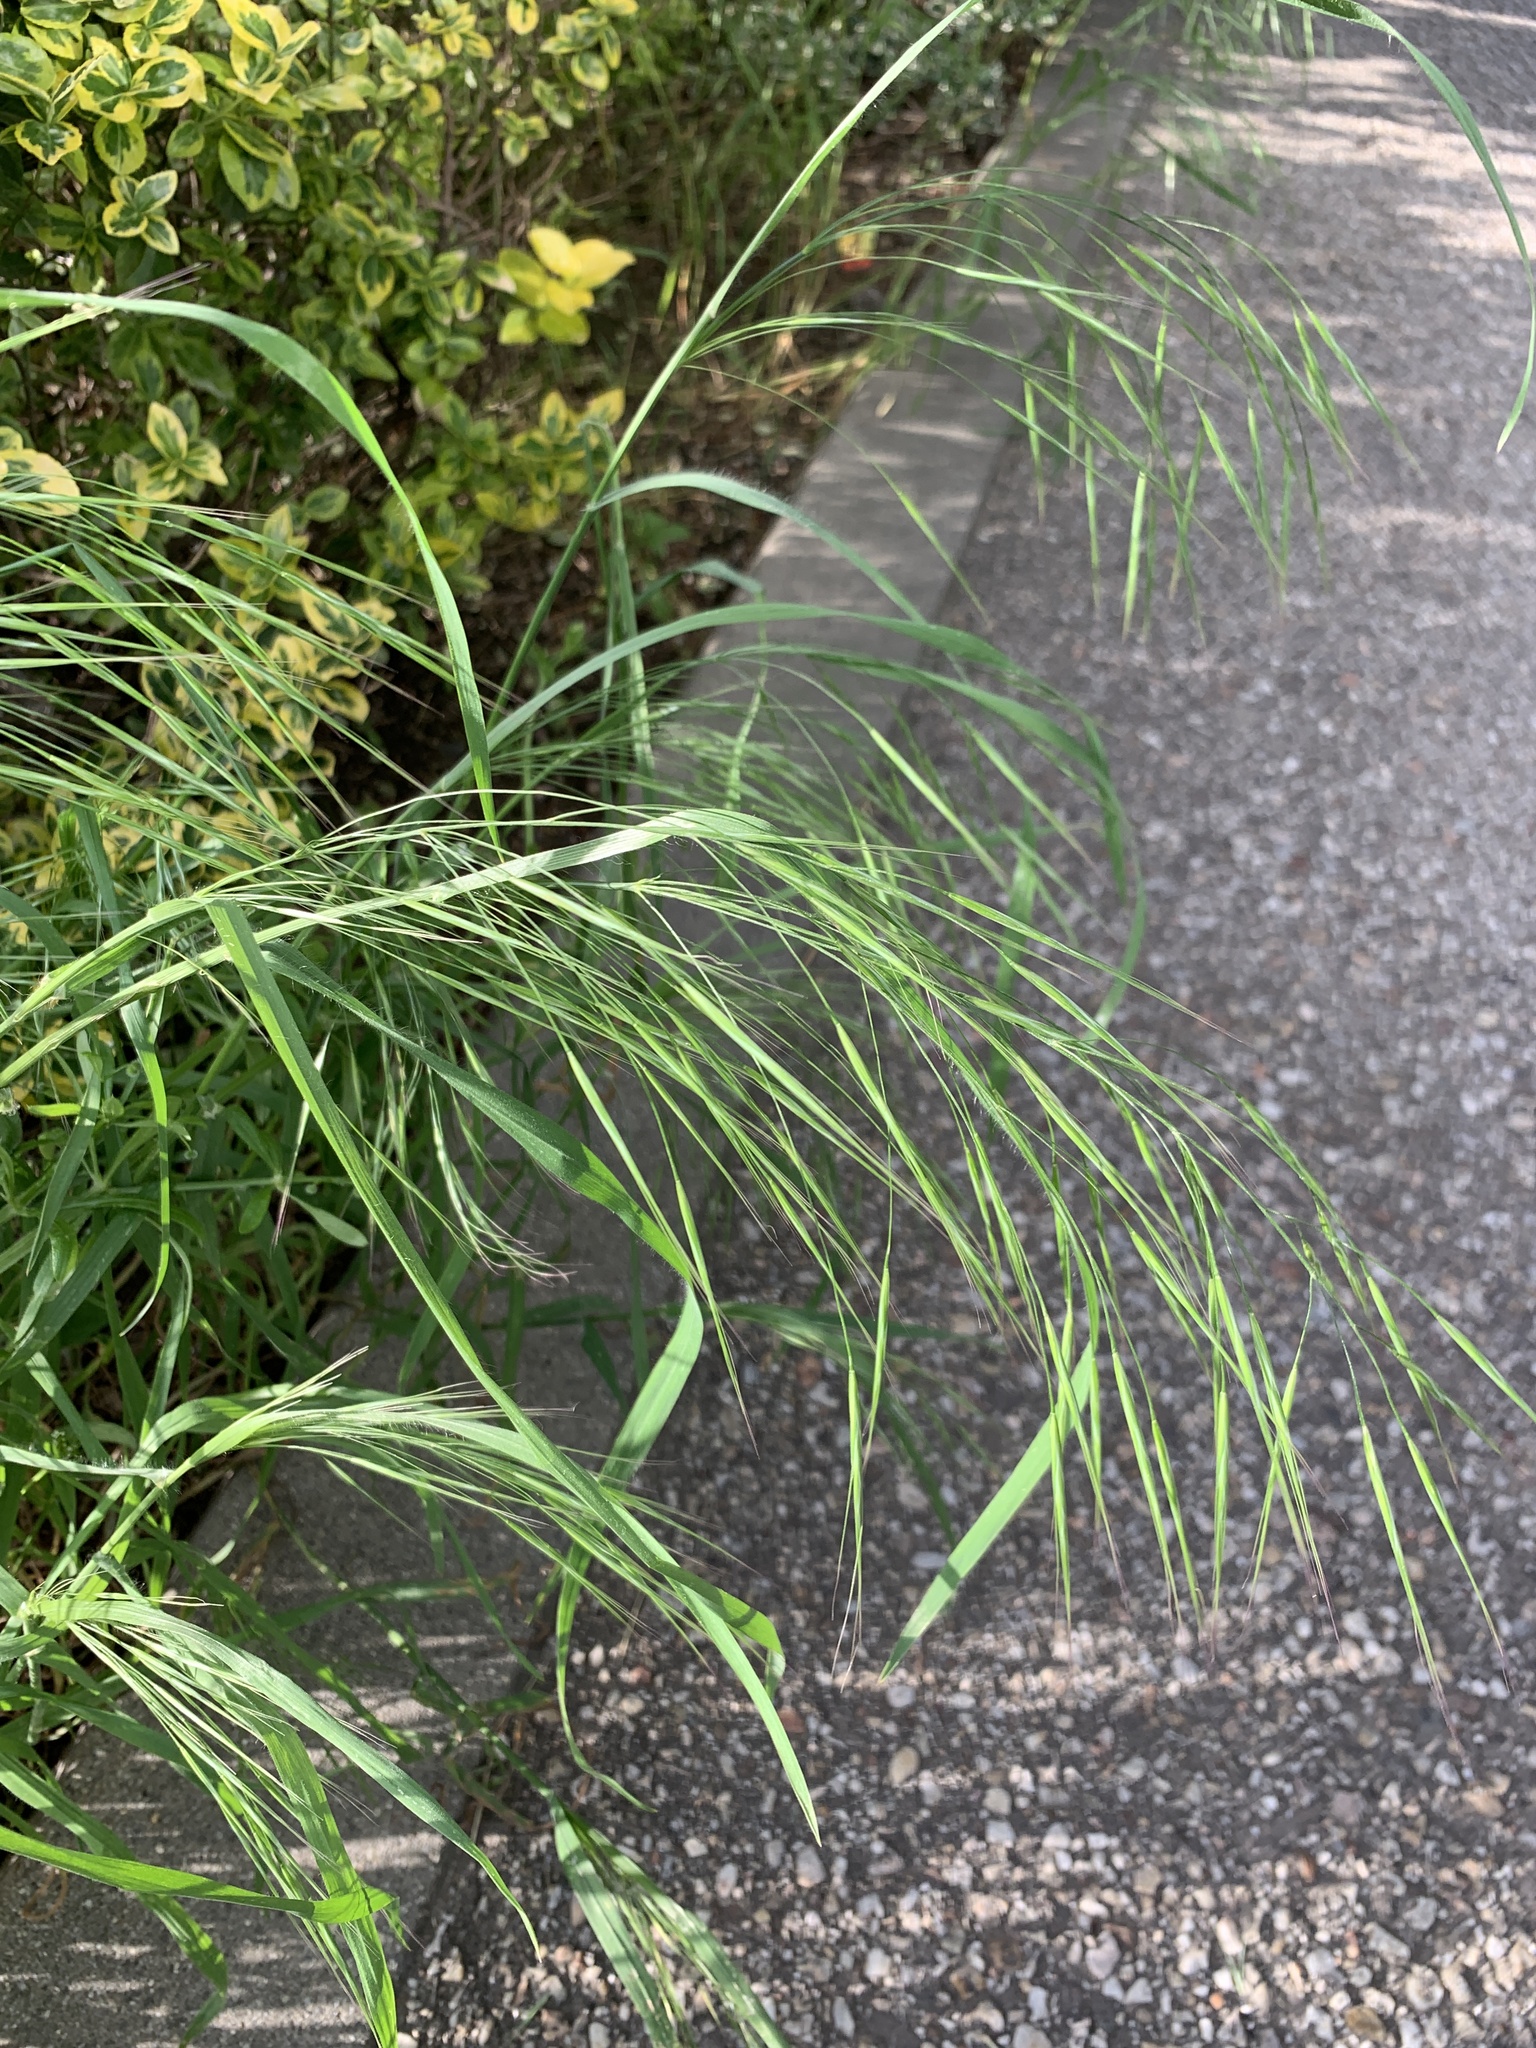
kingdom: Plantae
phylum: Tracheophyta
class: Liliopsida
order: Poales
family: Poaceae
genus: Bromus
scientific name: Bromus sterilis
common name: Poverty brome
